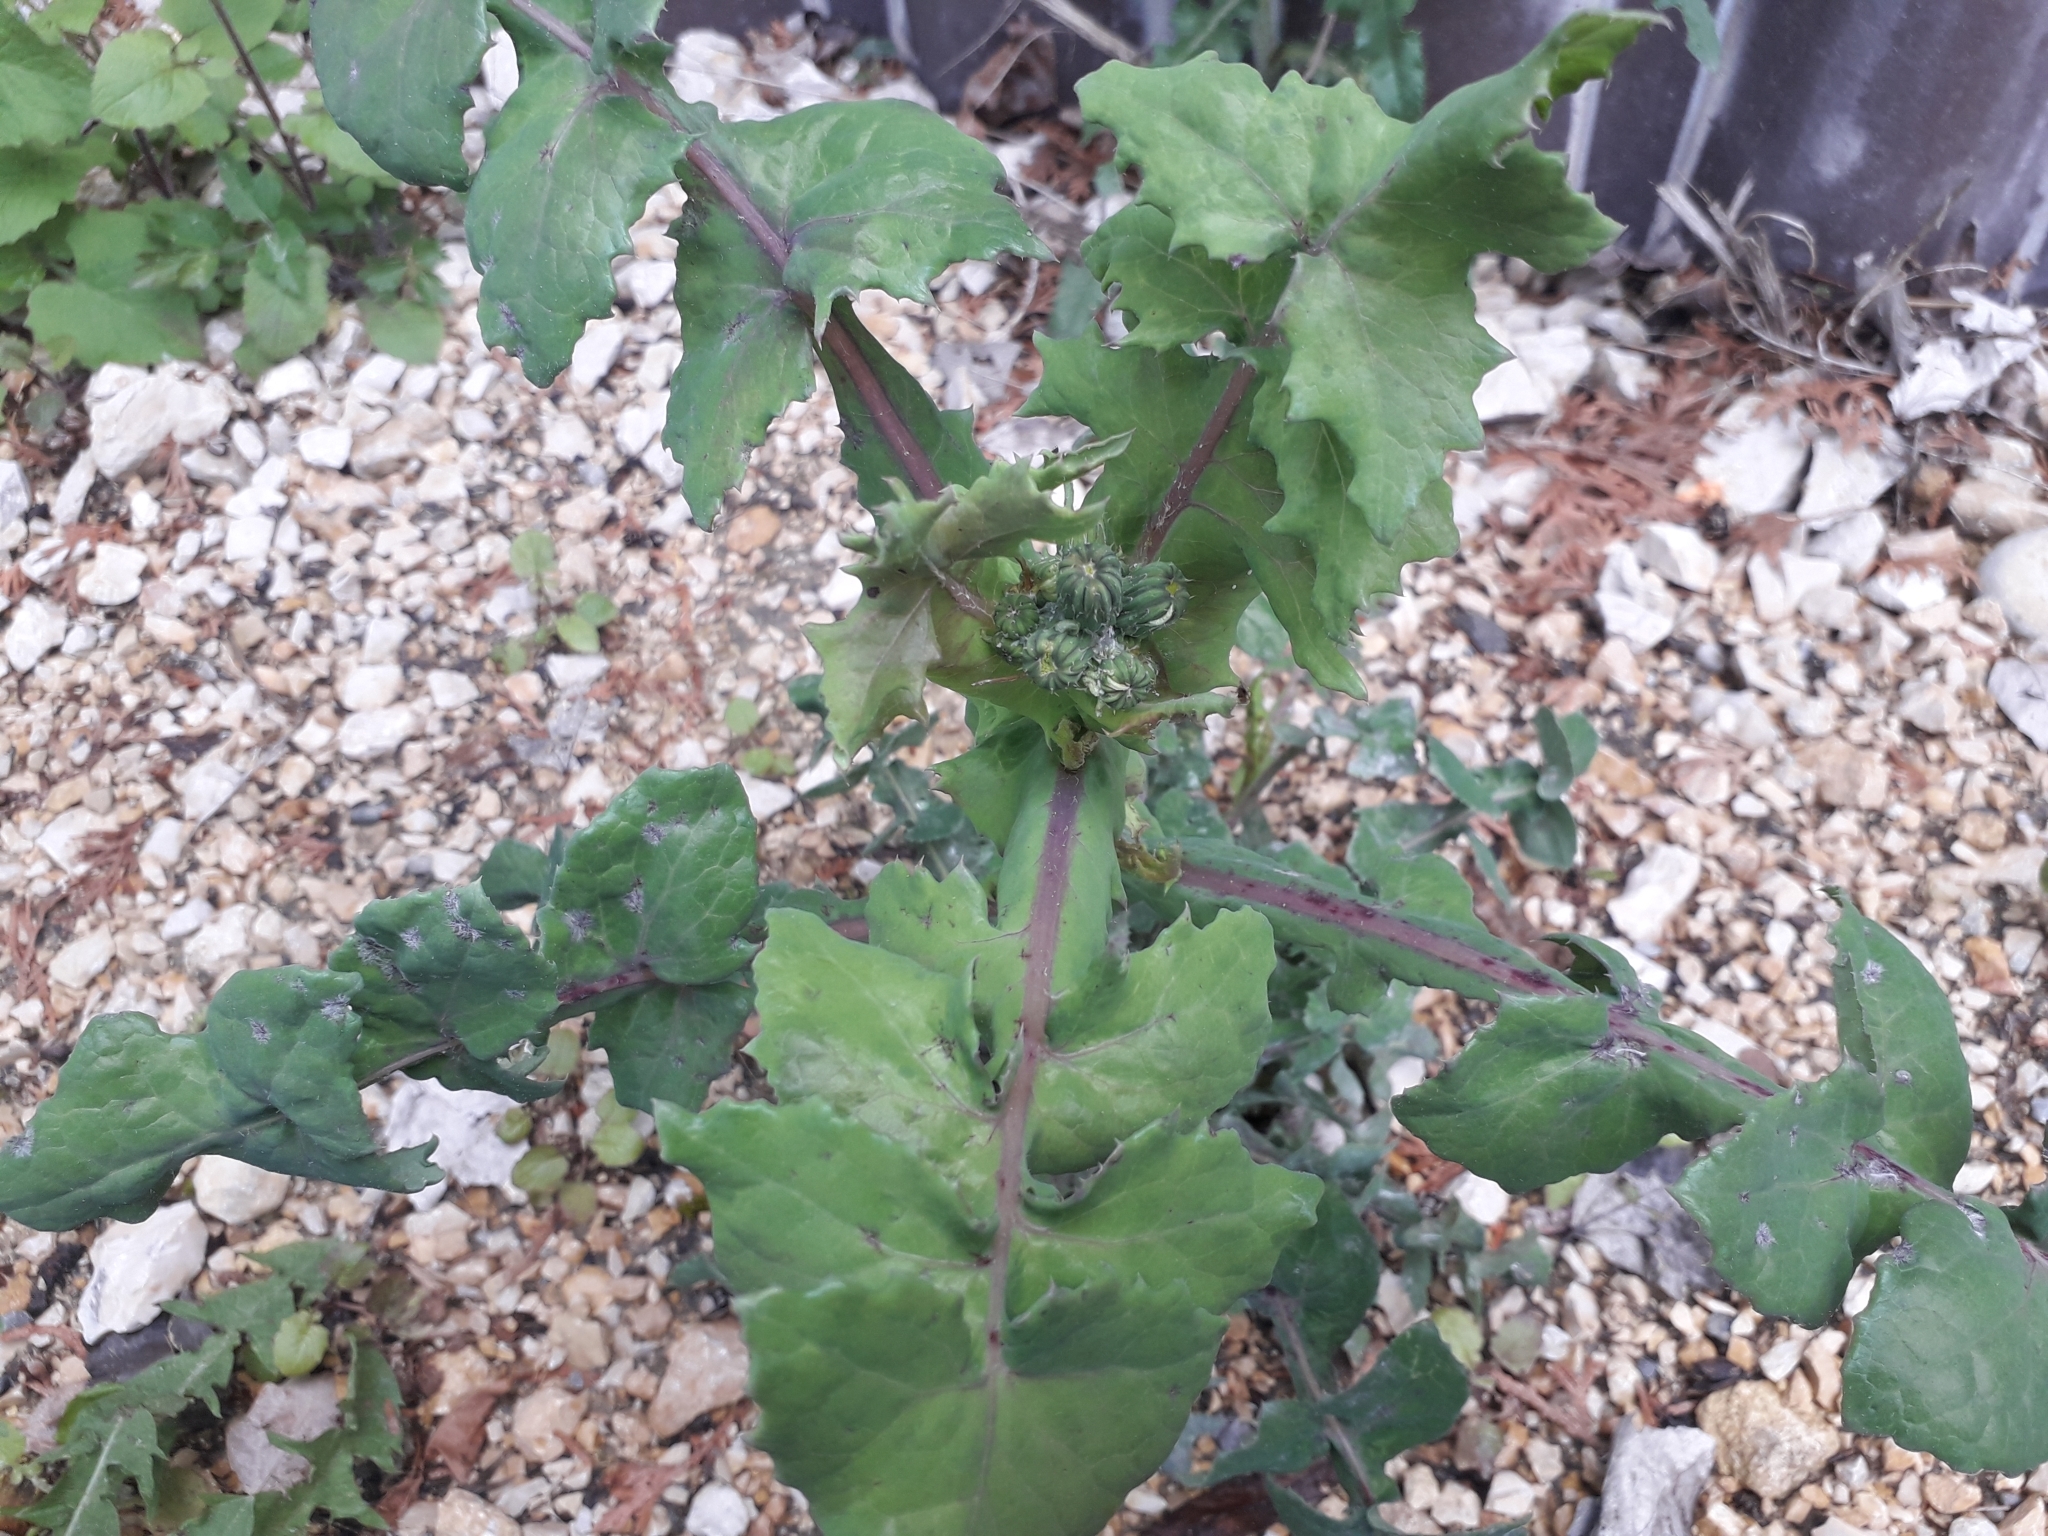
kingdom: Plantae
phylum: Tracheophyta
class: Magnoliopsida
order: Asterales
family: Asteraceae
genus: Sonchus
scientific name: Sonchus oleraceus
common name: Common sowthistle
